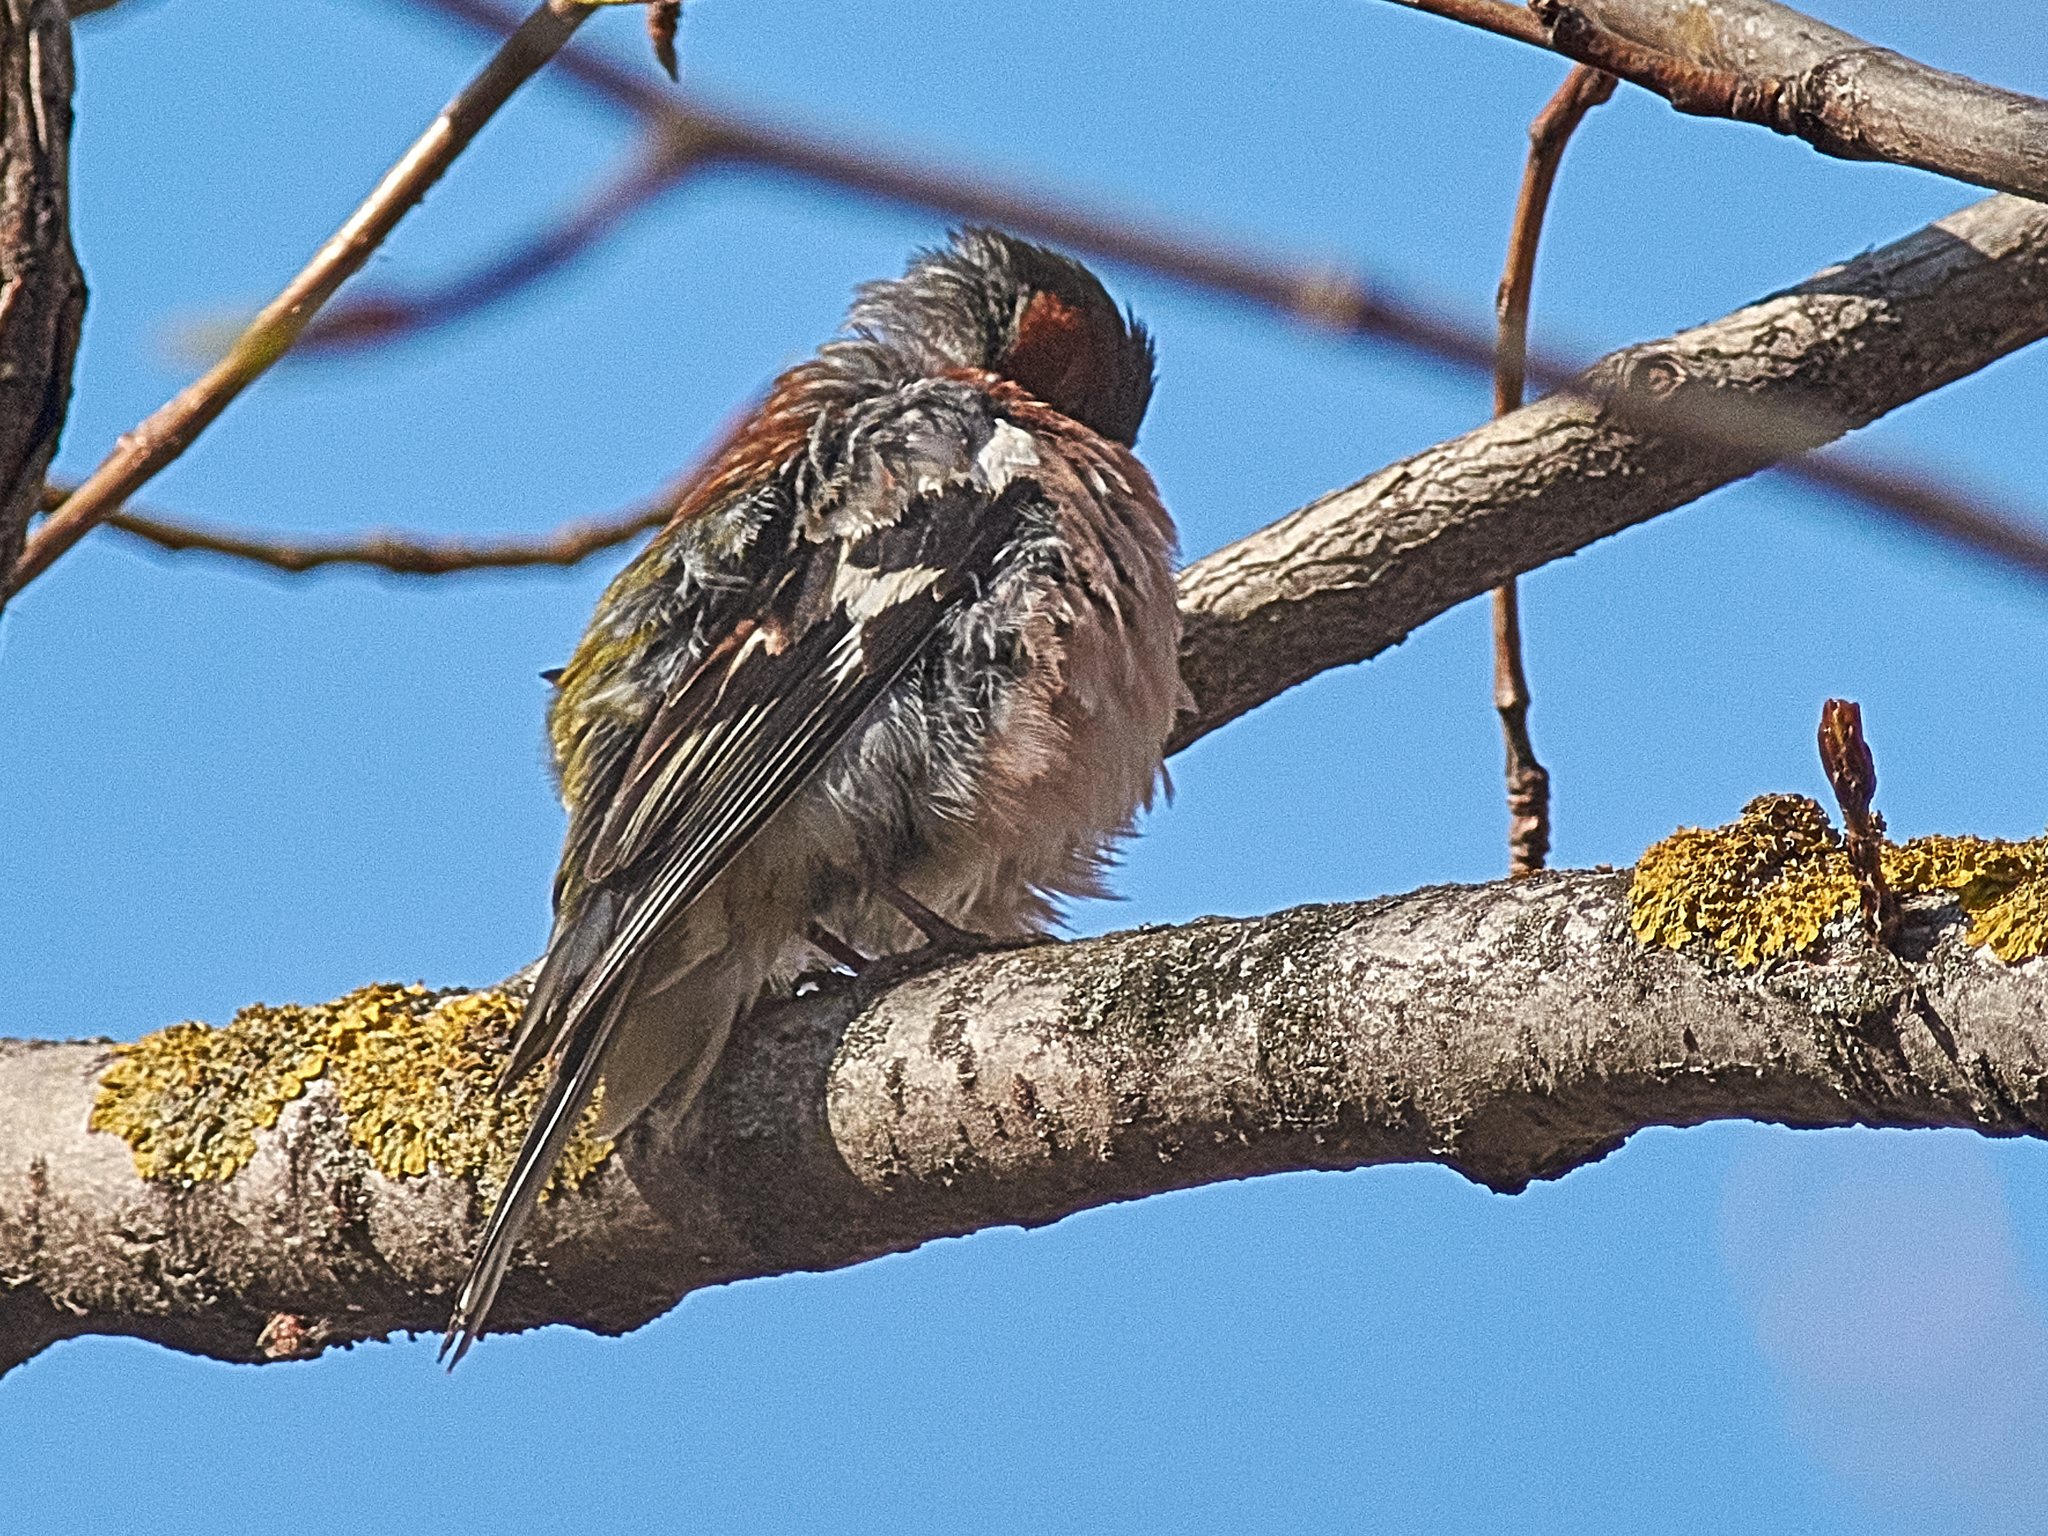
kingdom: Animalia
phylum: Chordata
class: Aves
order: Passeriformes
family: Fringillidae
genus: Fringilla
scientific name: Fringilla coelebs
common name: Common chaffinch
